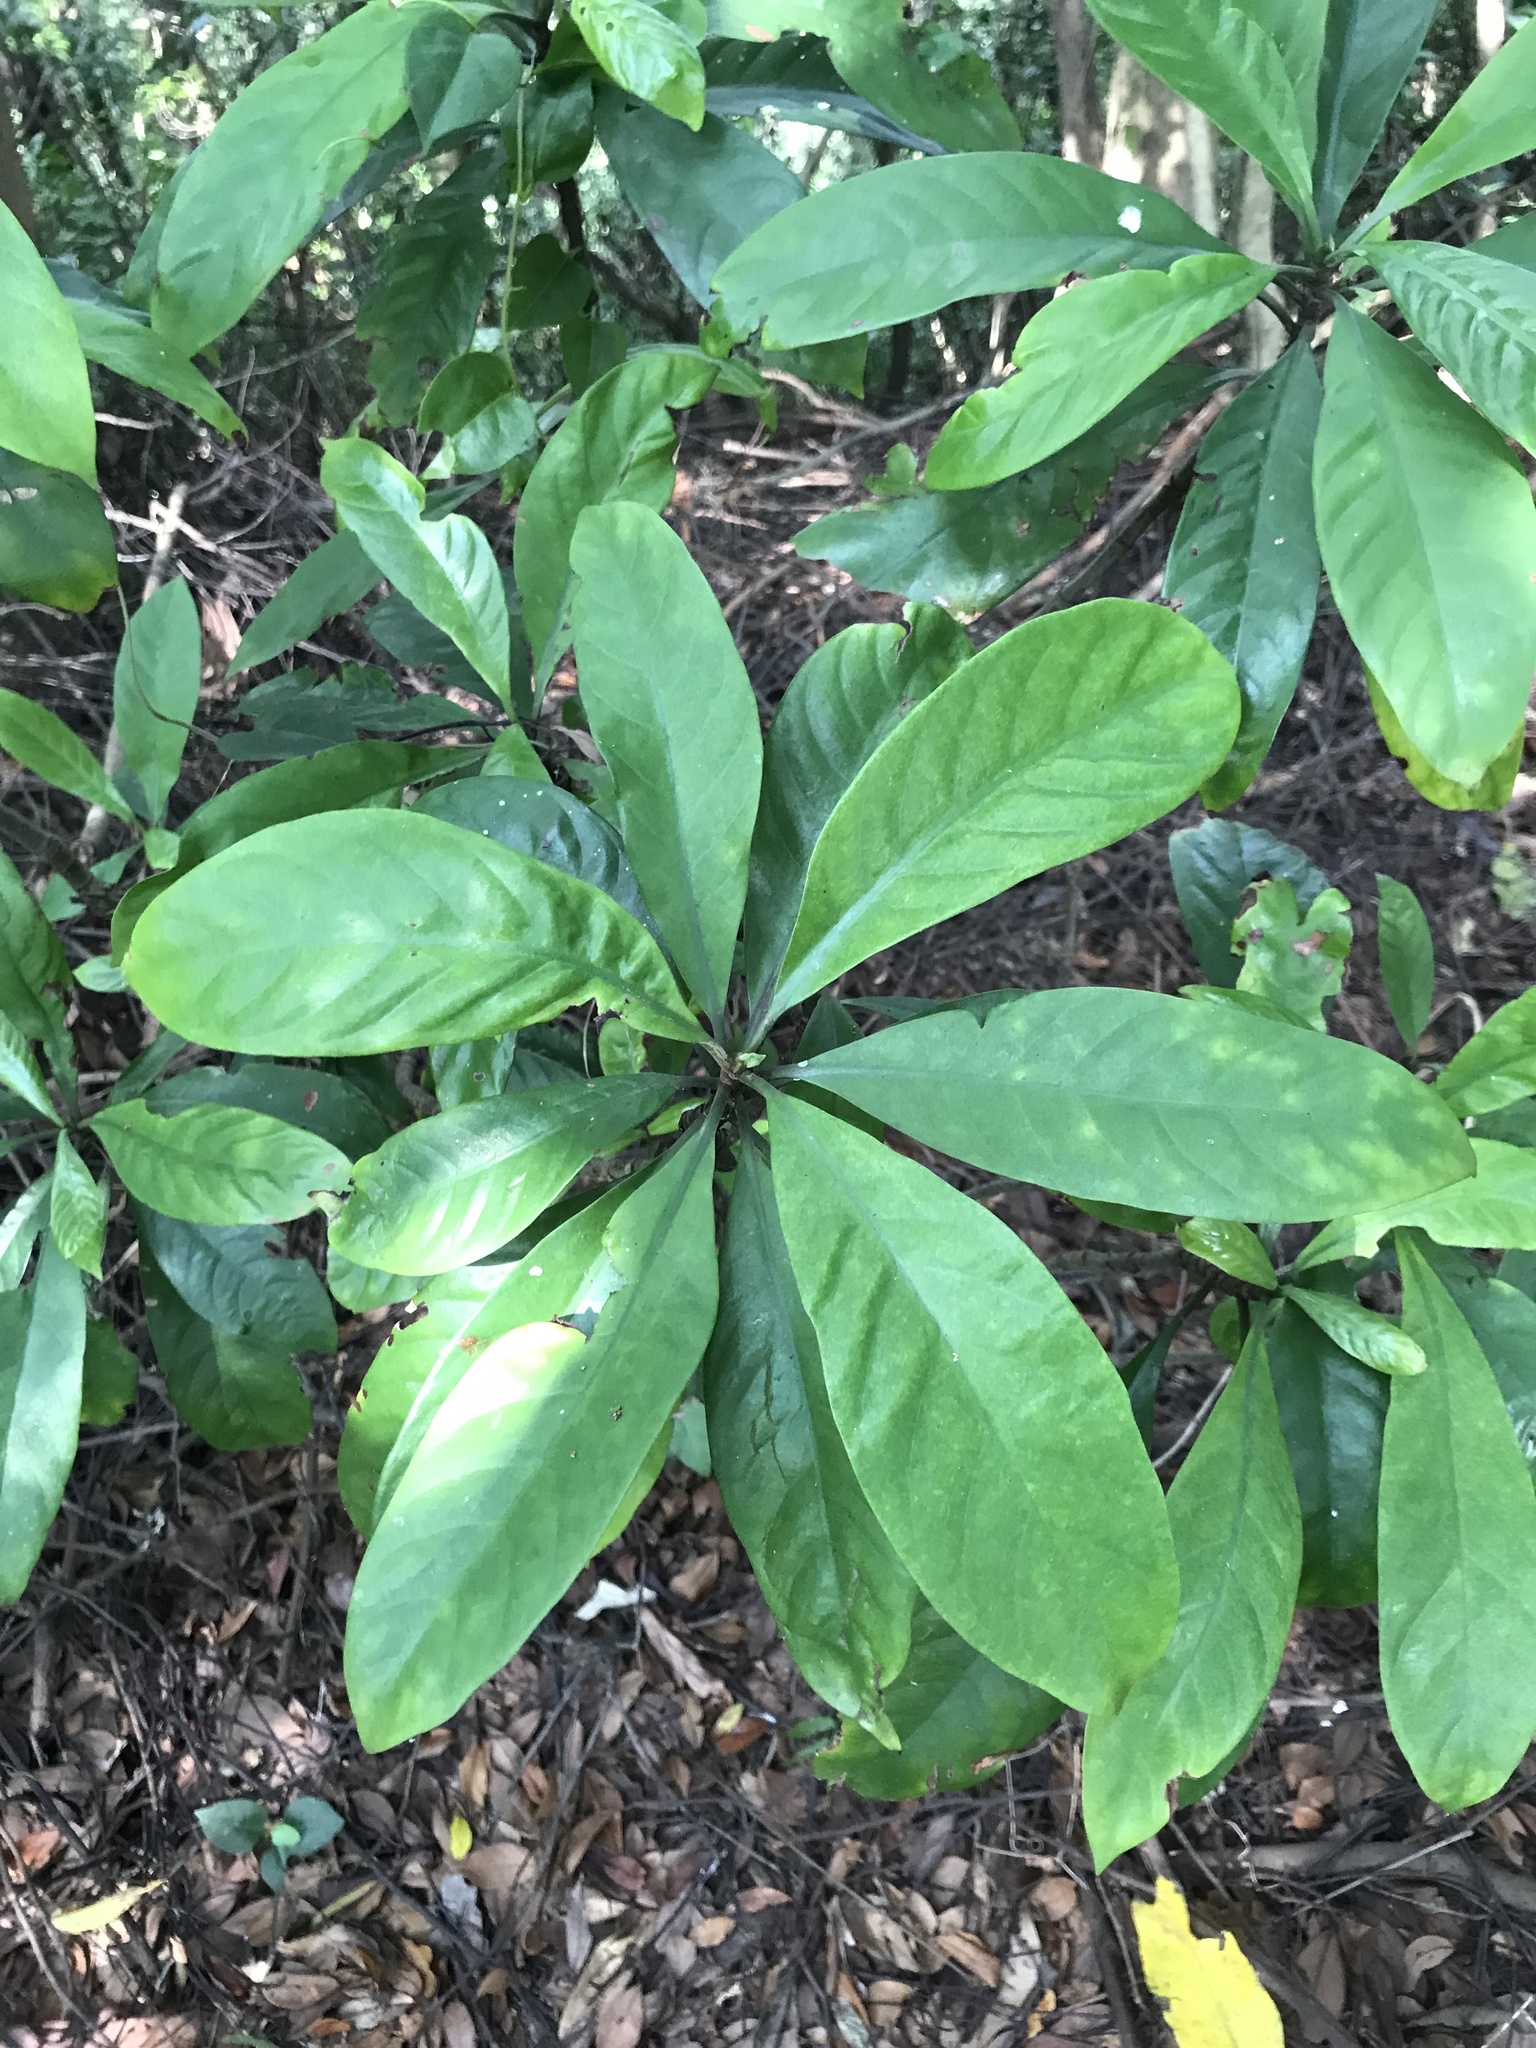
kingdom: Plantae
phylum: Tracheophyta
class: Magnoliopsida
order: Gentianales
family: Rubiaceae
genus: Psychotria
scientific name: Psychotria asiatica
